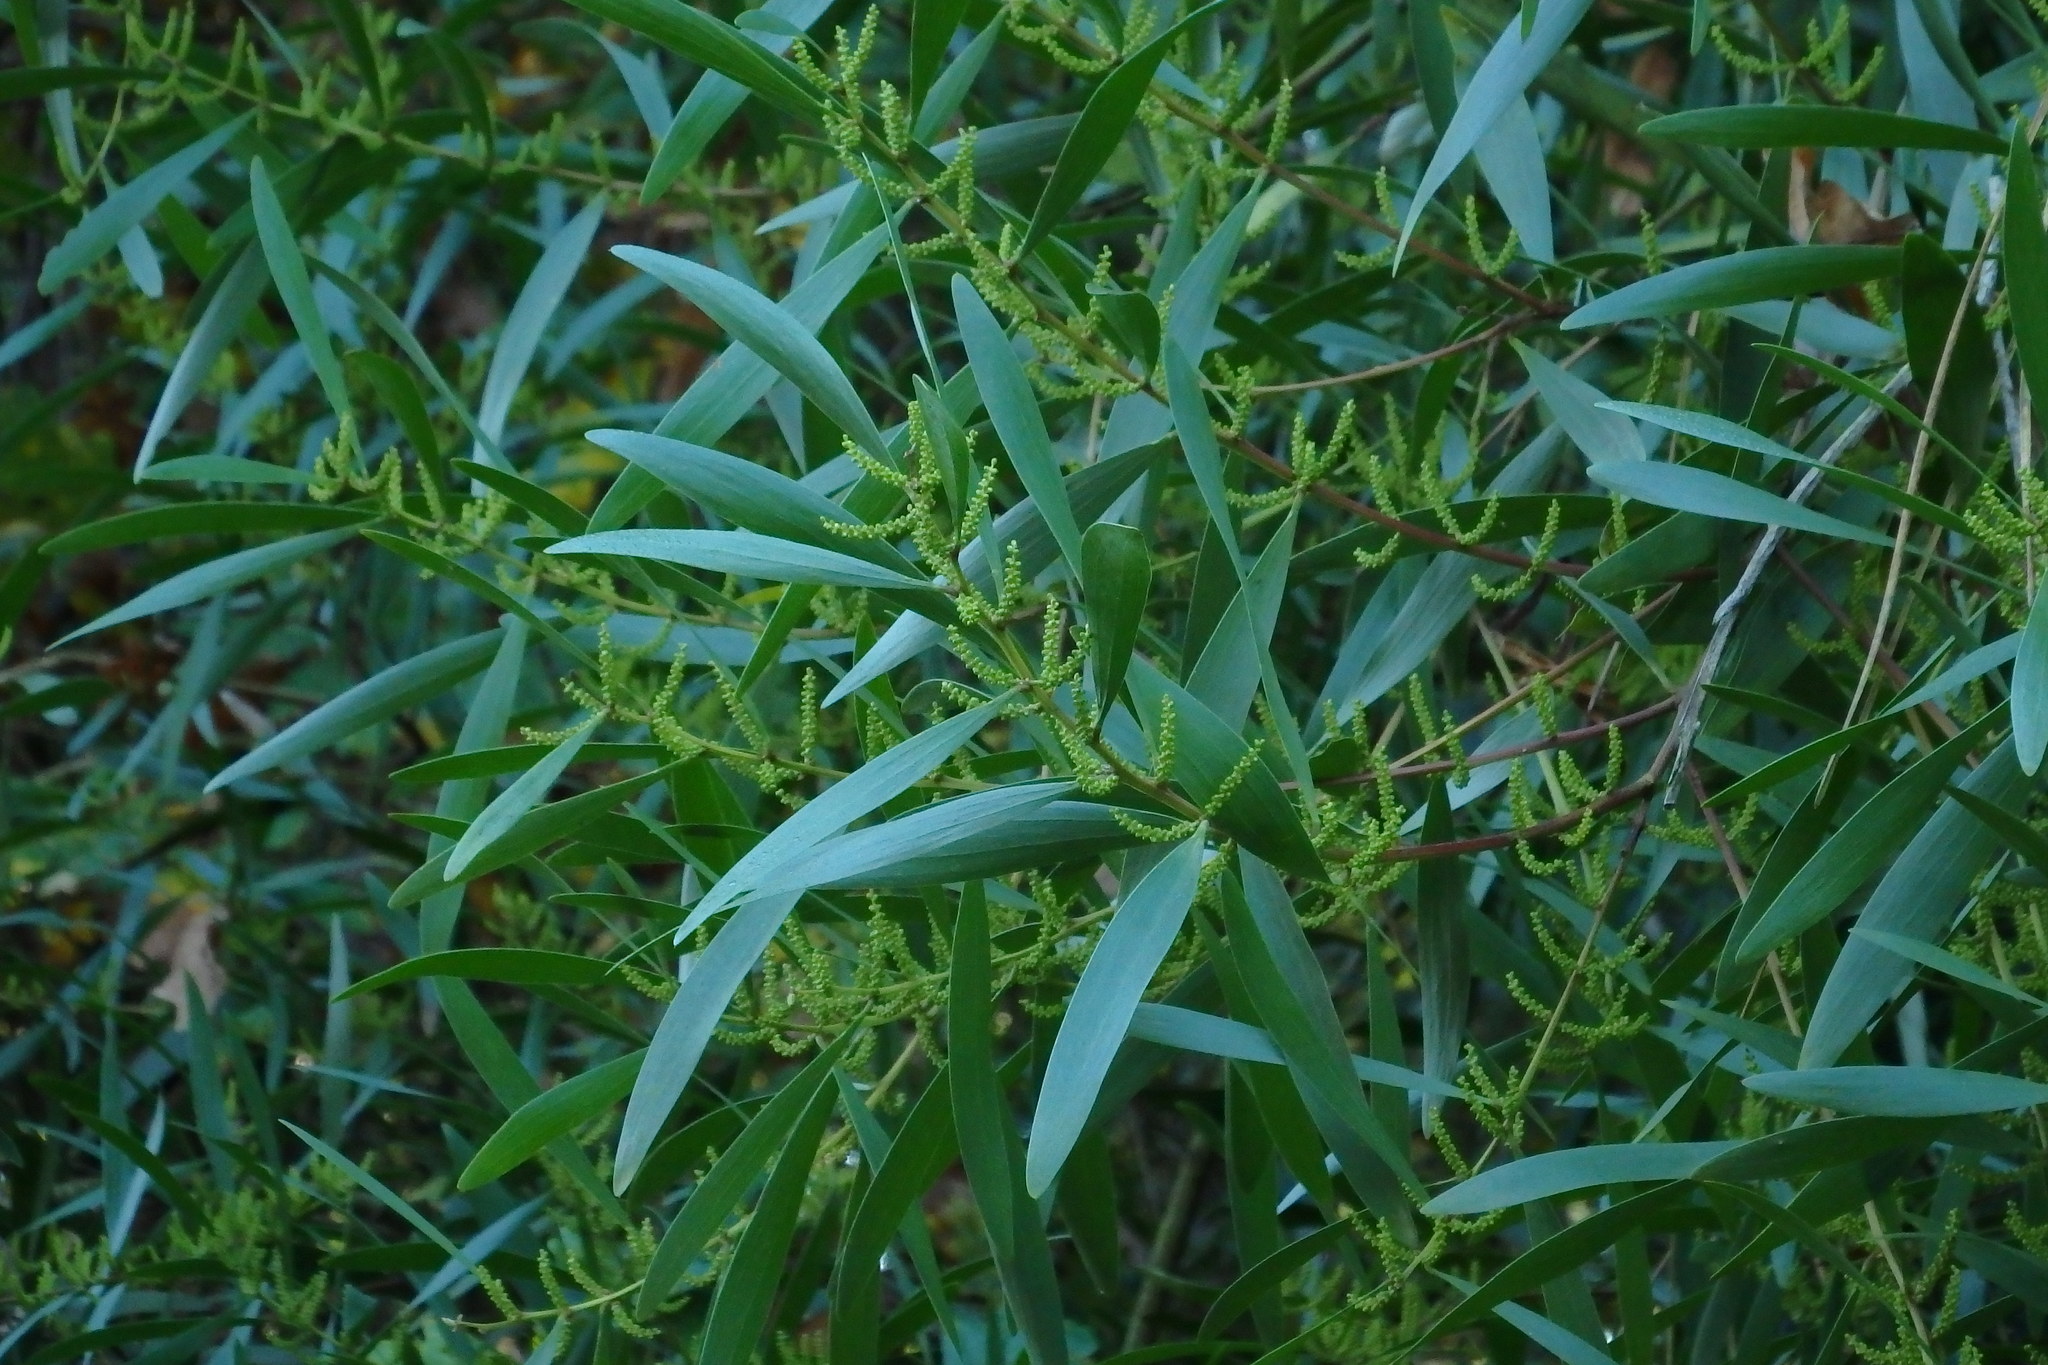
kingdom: Plantae
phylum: Tracheophyta
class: Magnoliopsida
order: Fabales
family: Fabaceae
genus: Acacia
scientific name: Acacia longifolia
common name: Sydney golden wattle
